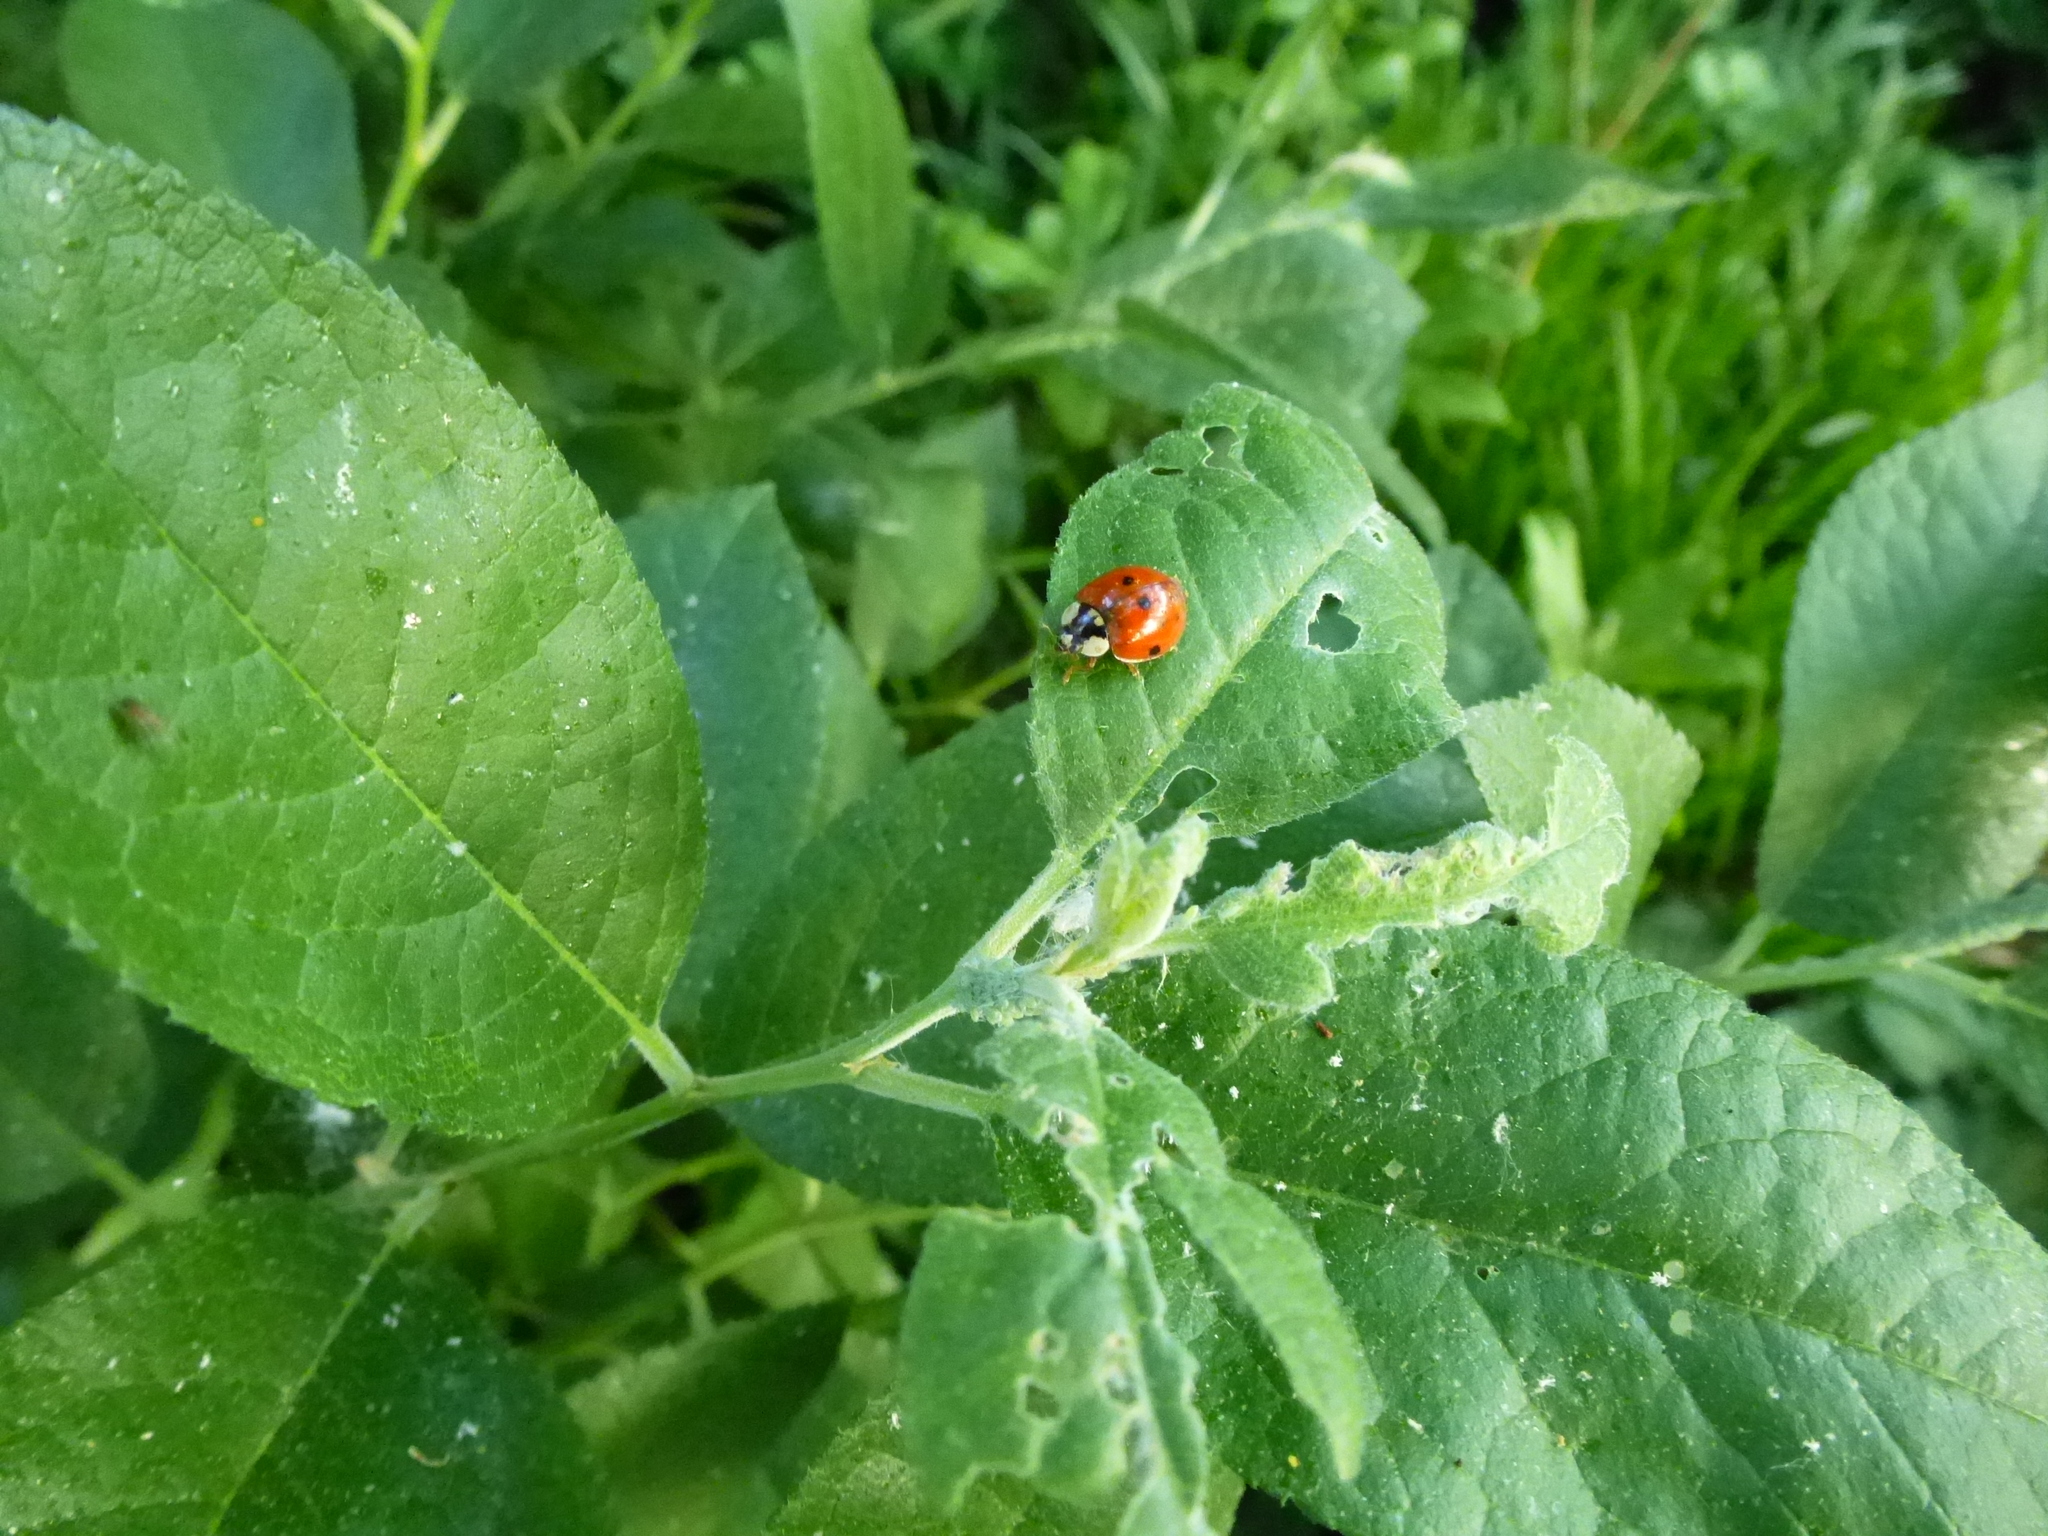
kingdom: Animalia
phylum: Arthropoda
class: Insecta
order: Coleoptera
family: Coccinellidae
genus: Harmonia
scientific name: Harmonia axyridis
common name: Harlequin ladybird
